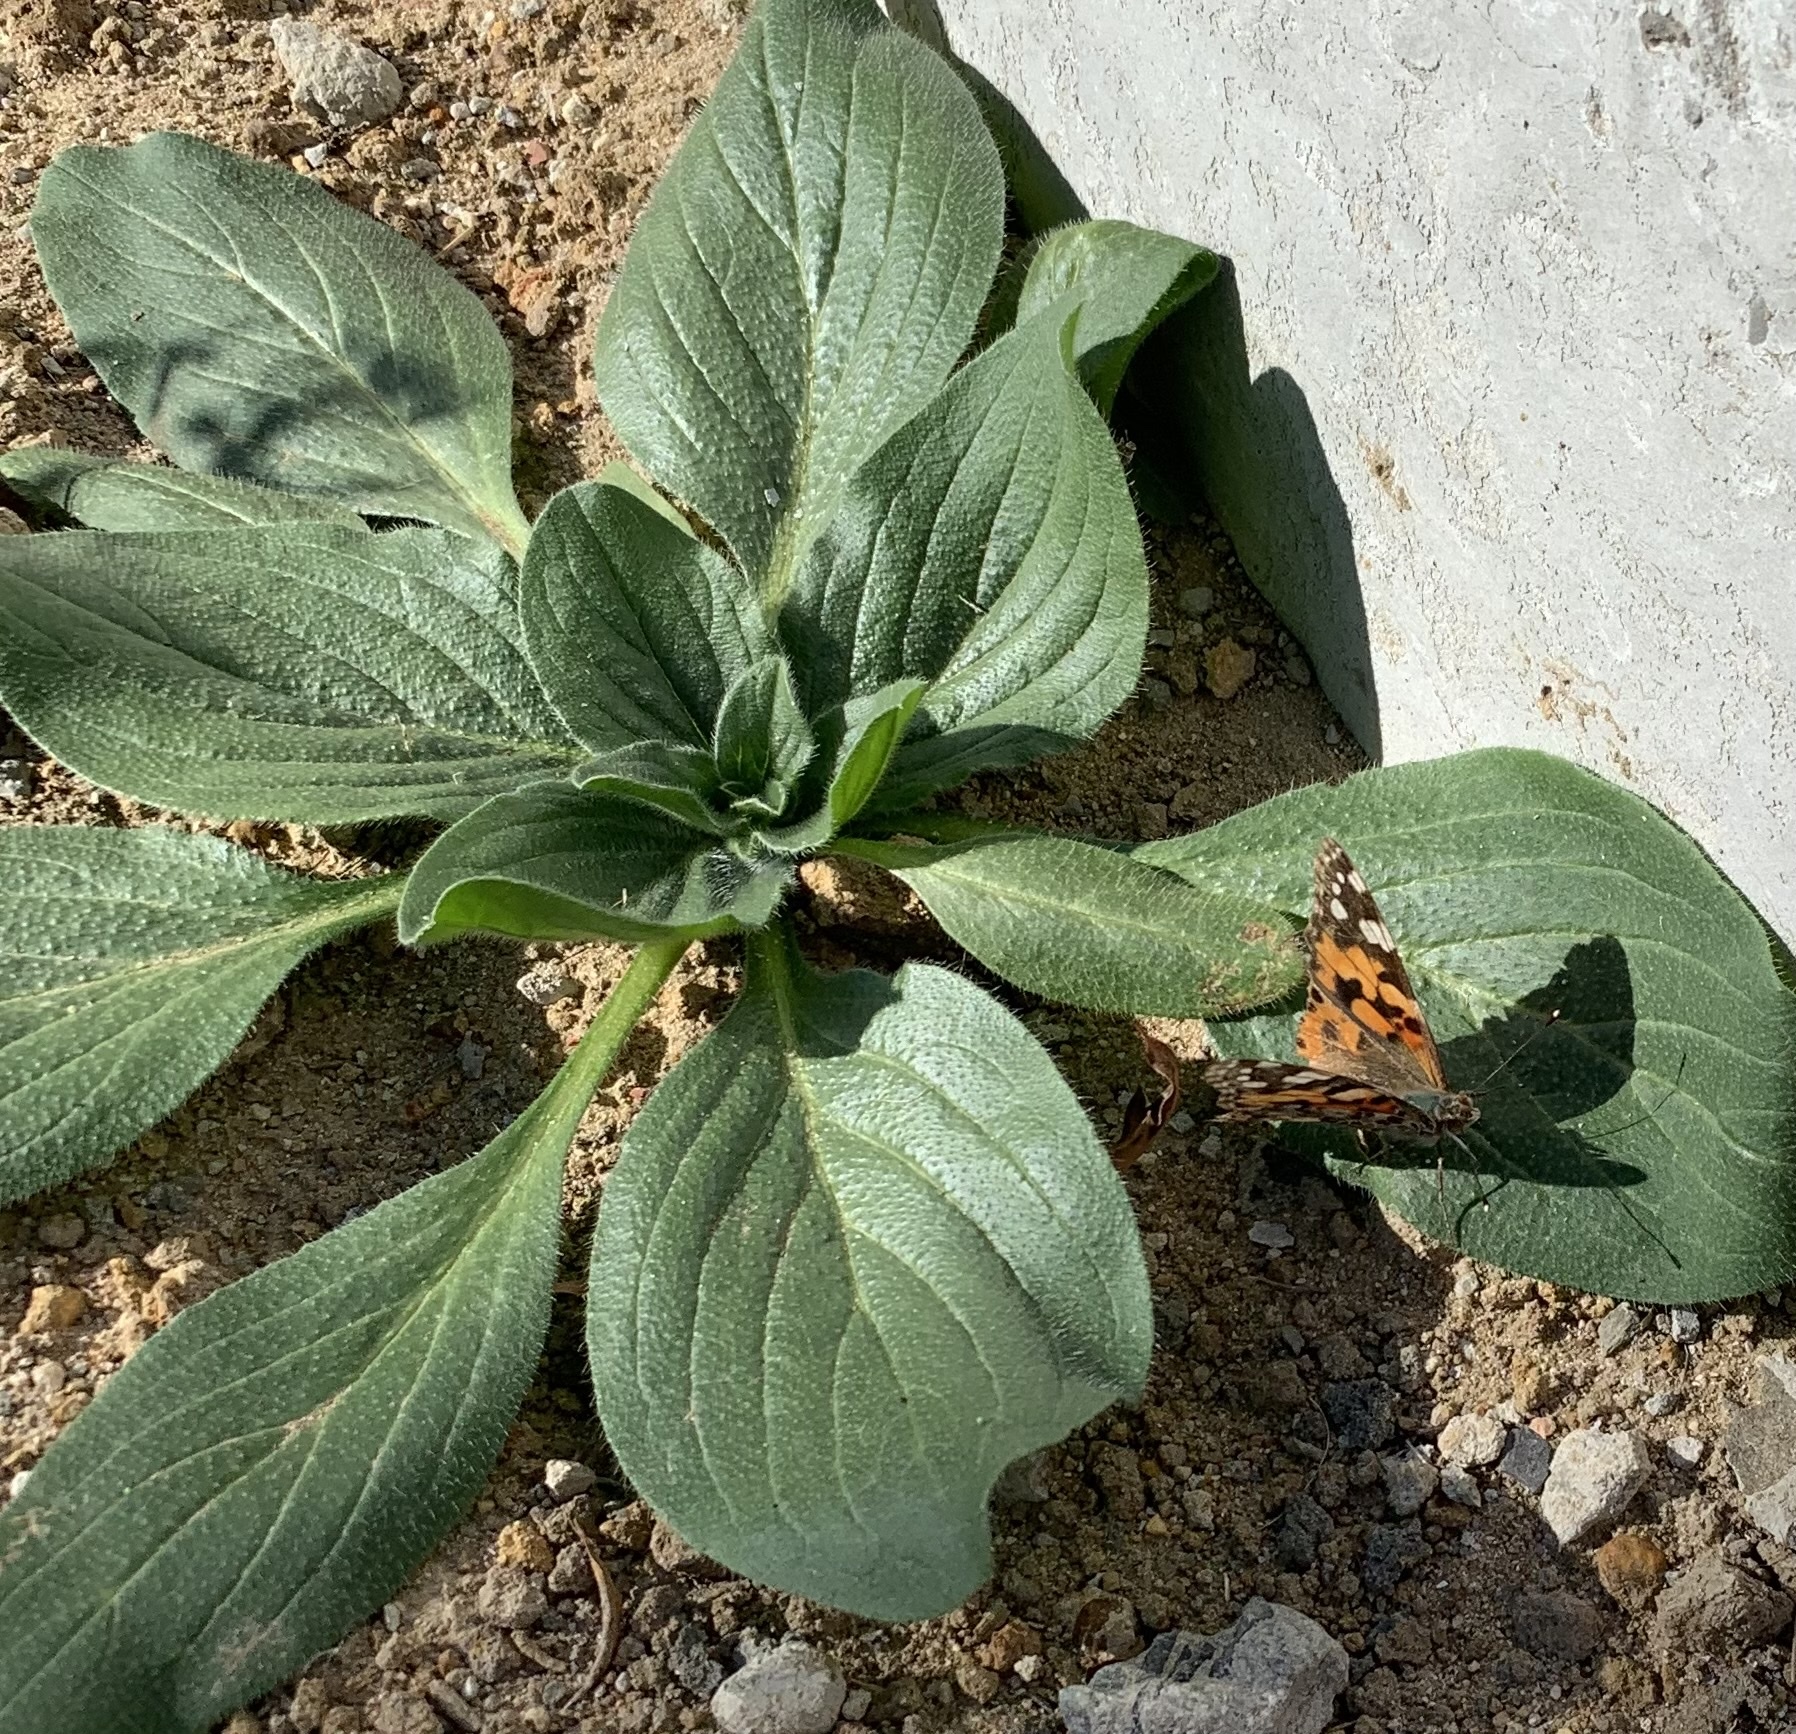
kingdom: Animalia
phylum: Arthropoda
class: Insecta
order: Lepidoptera
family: Nymphalidae
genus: Vanessa
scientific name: Vanessa cardui
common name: Painted lady
